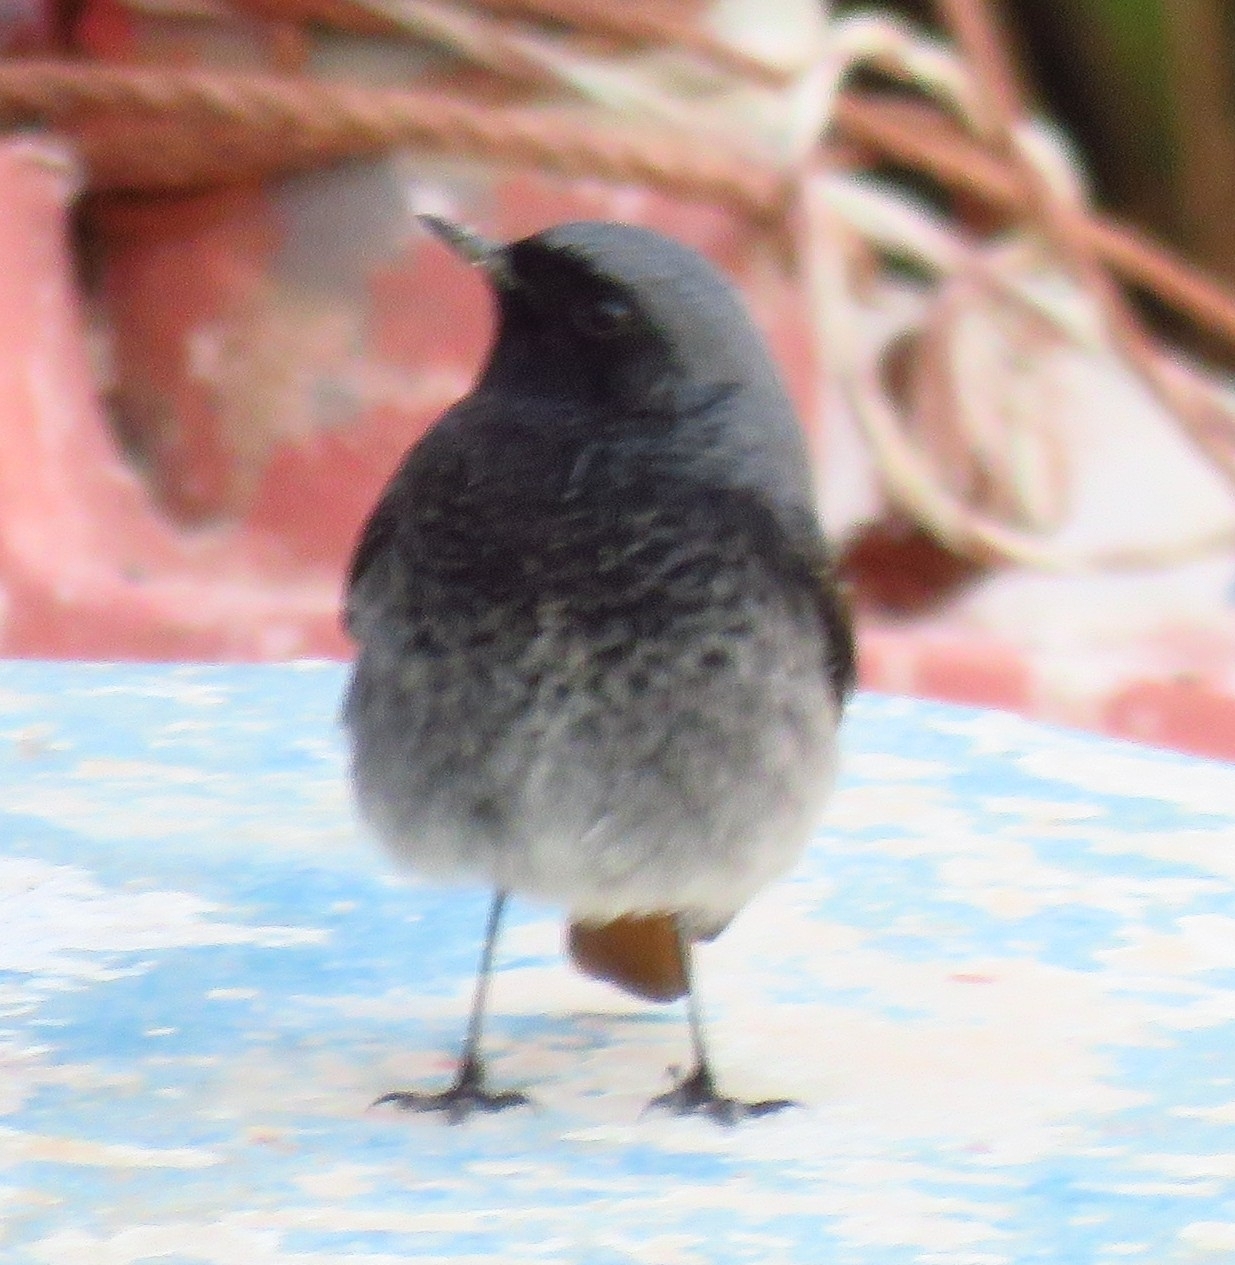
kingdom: Animalia
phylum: Chordata
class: Aves
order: Passeriformes
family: Muscicapidae
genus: Phoenicurus
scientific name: Phoenicurus ochruros
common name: Black redstart
